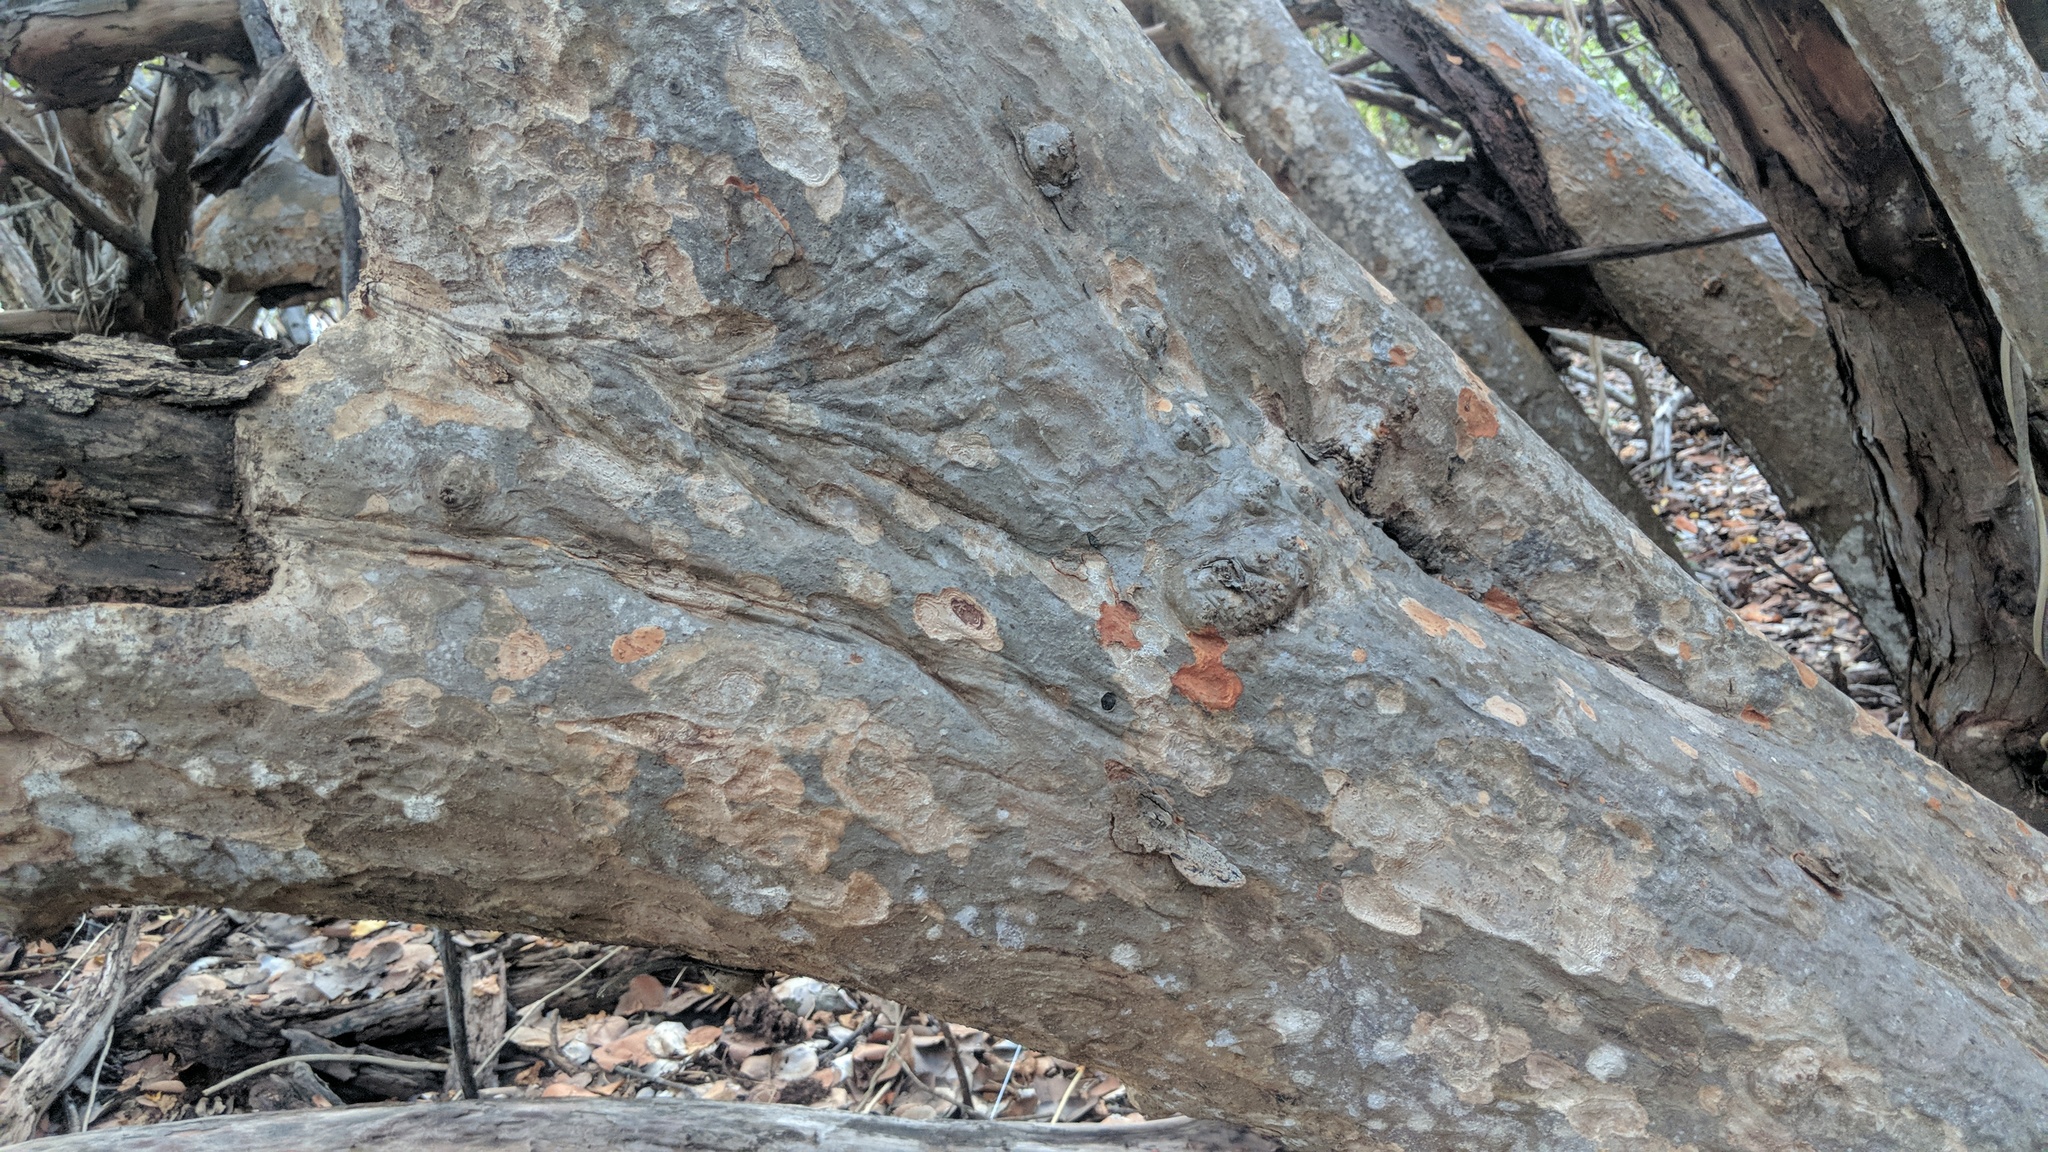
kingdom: Plantae
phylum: Tracheophyta
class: Magnoliopsida
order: Caryophyllales
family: Polygonaceae
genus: Coccoloba
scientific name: Coccoloba uvifera
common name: Seagrape
